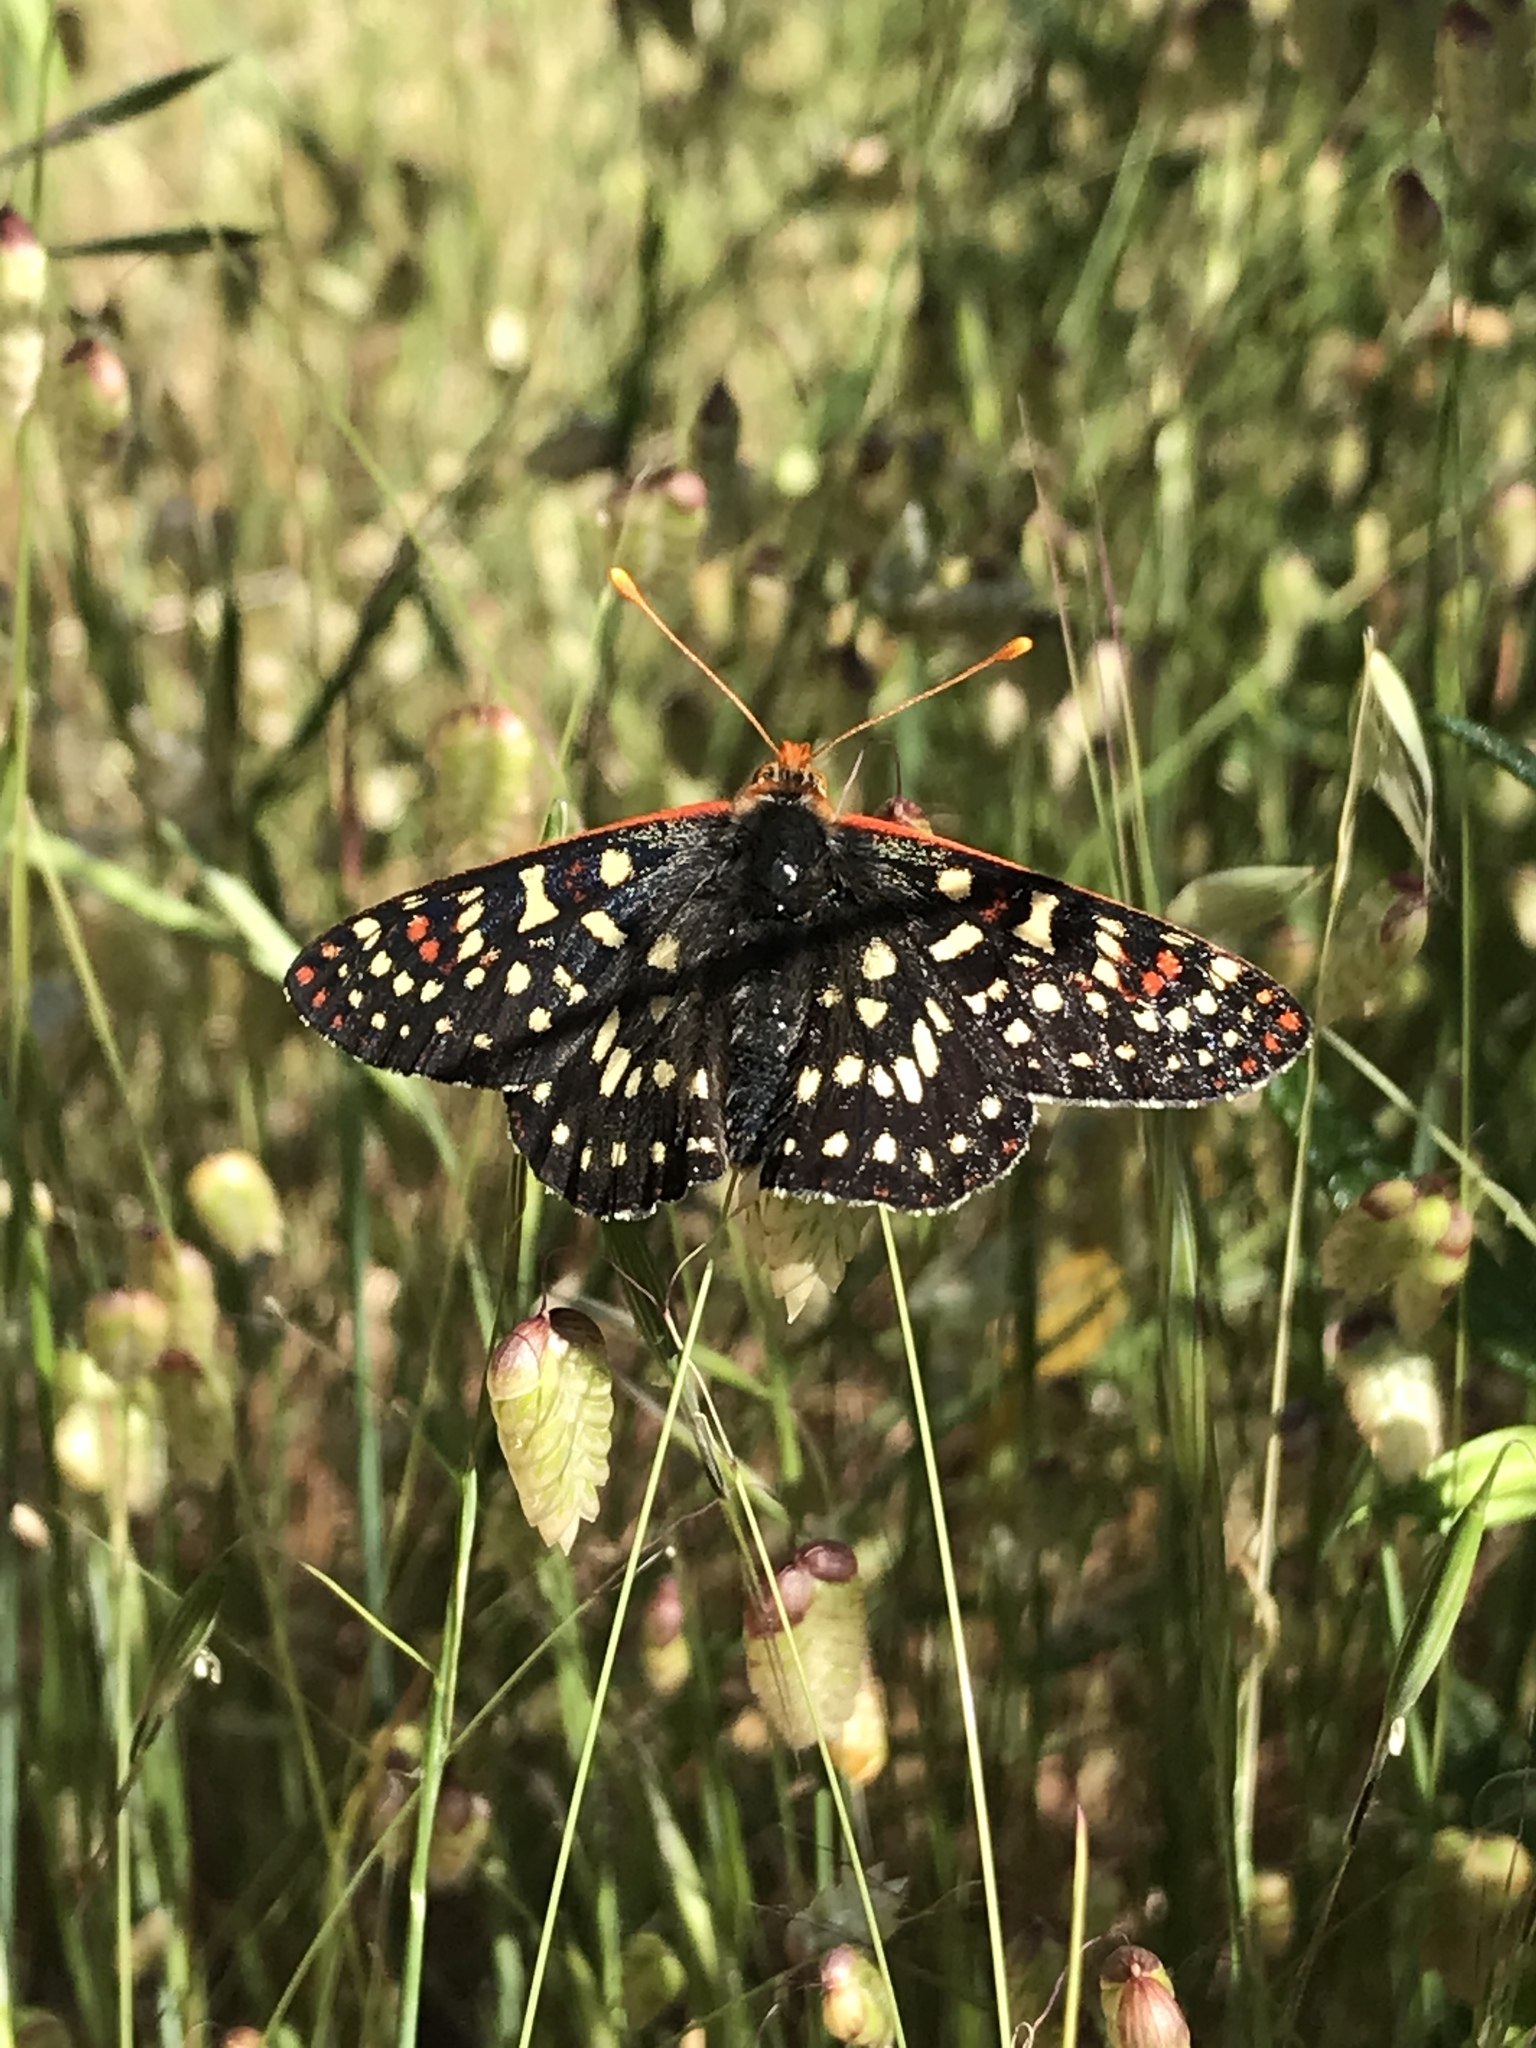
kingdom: Animalia
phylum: Arthropoda
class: Insecta
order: Lepidoptera
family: Nymphalidae
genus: Occidryas
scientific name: Occidryas chalcedona
